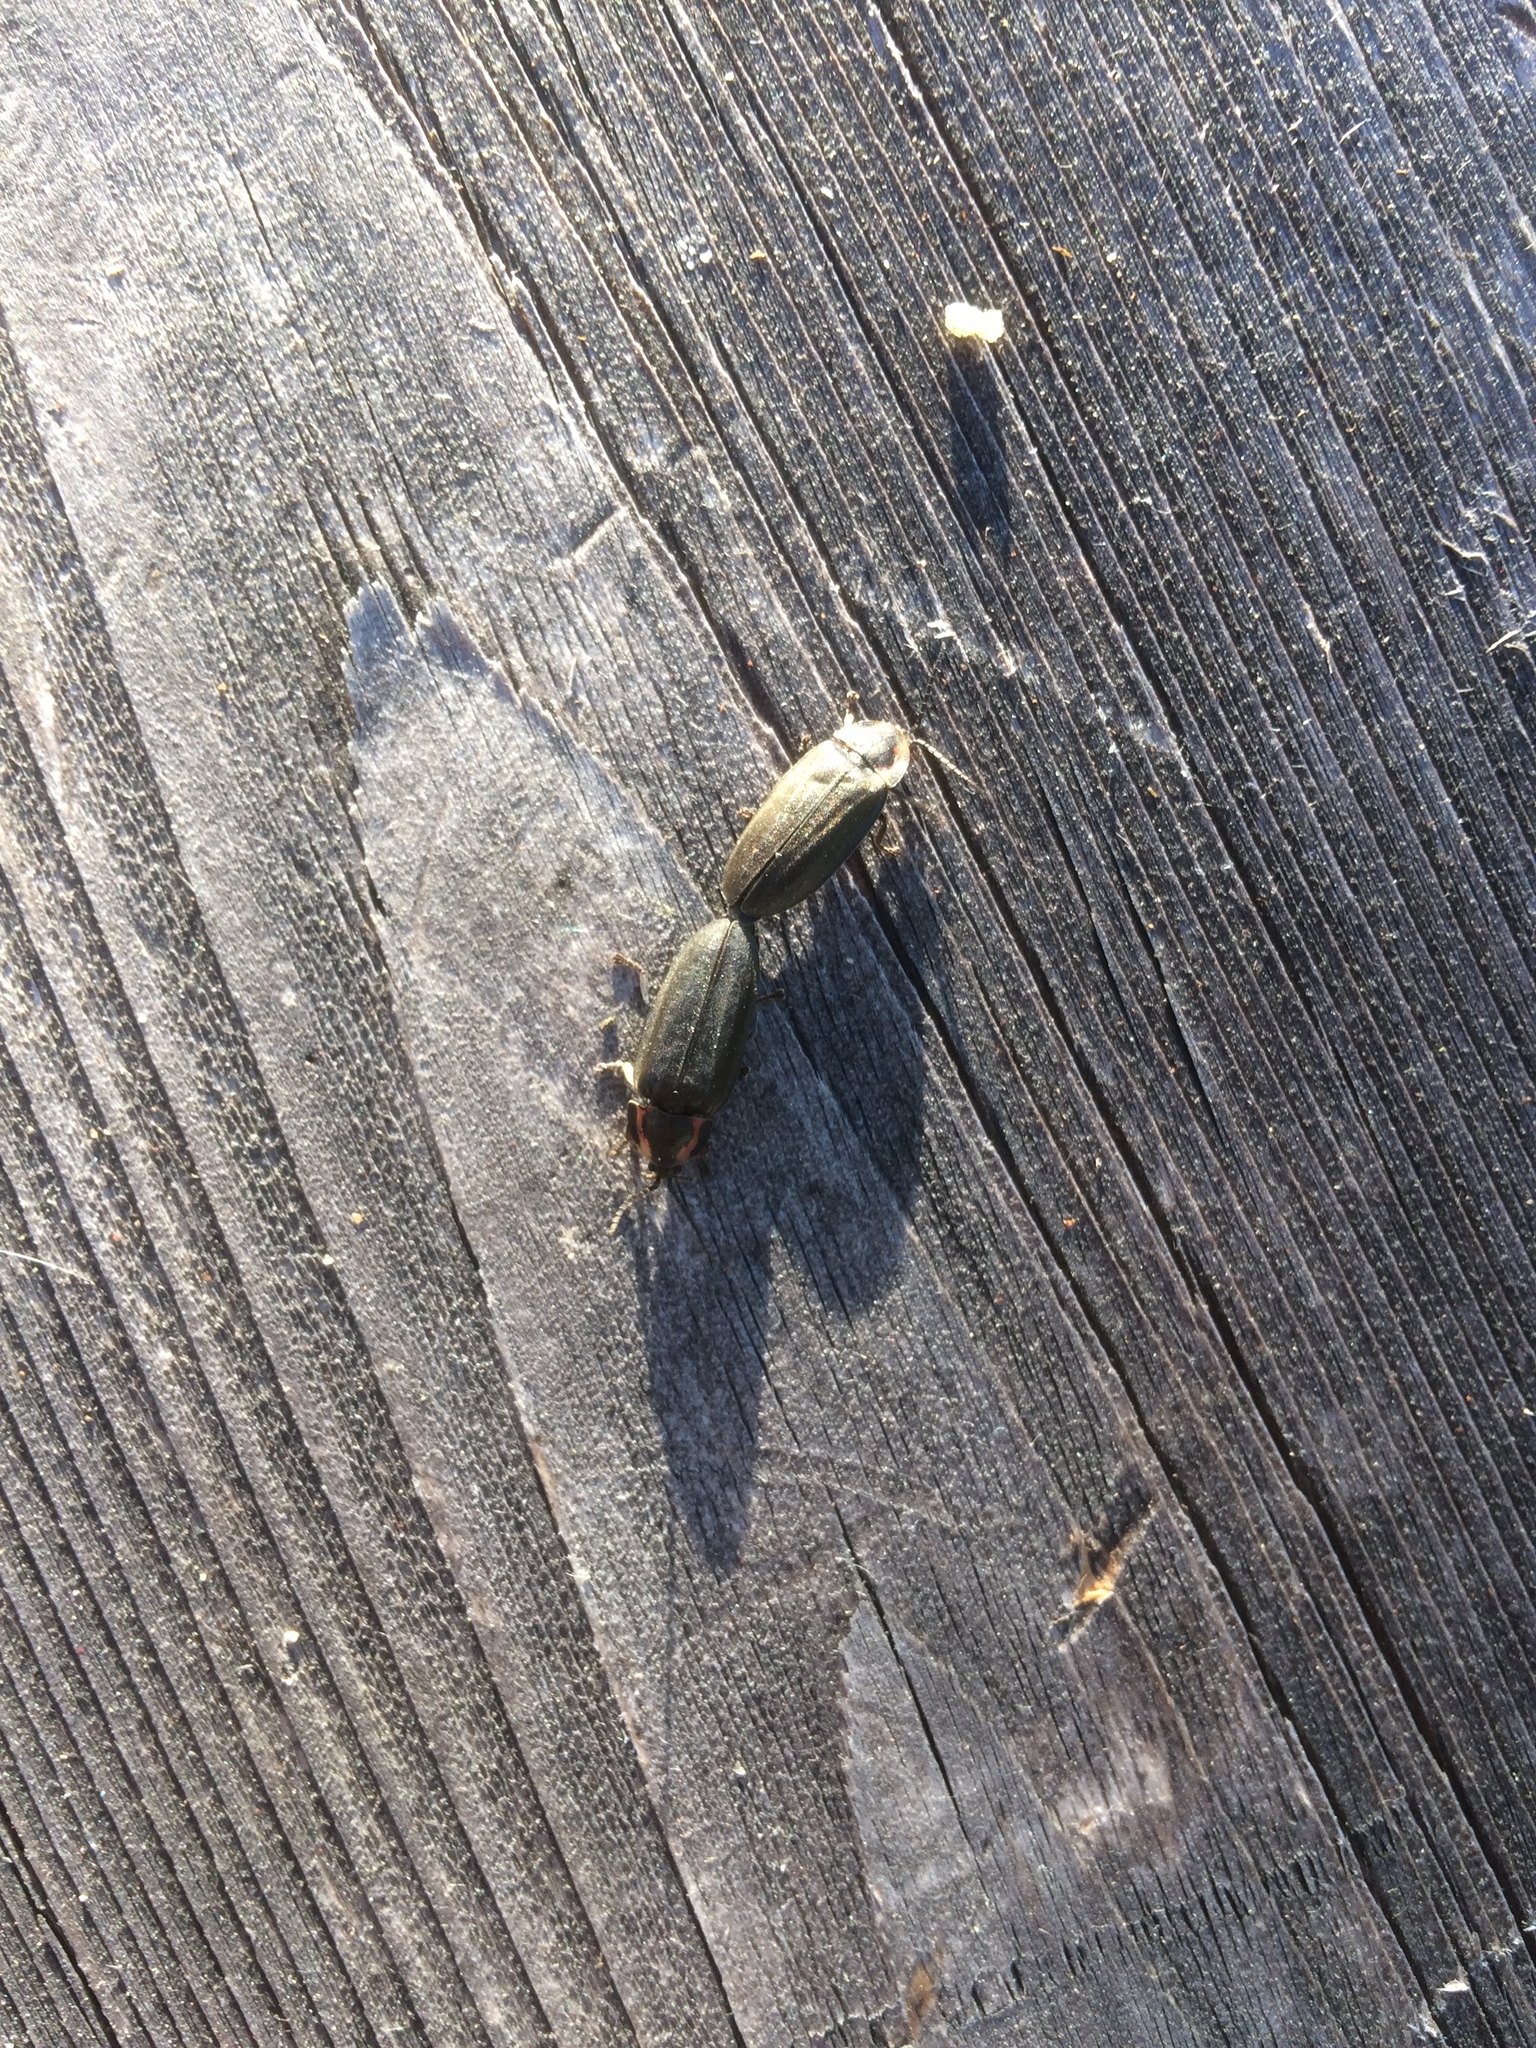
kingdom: Animalia
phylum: Arthropoda
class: Insecta
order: Coleoptera
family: Lampyridae
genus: Photinus
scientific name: Photinus corrusca
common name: Winter firefly
